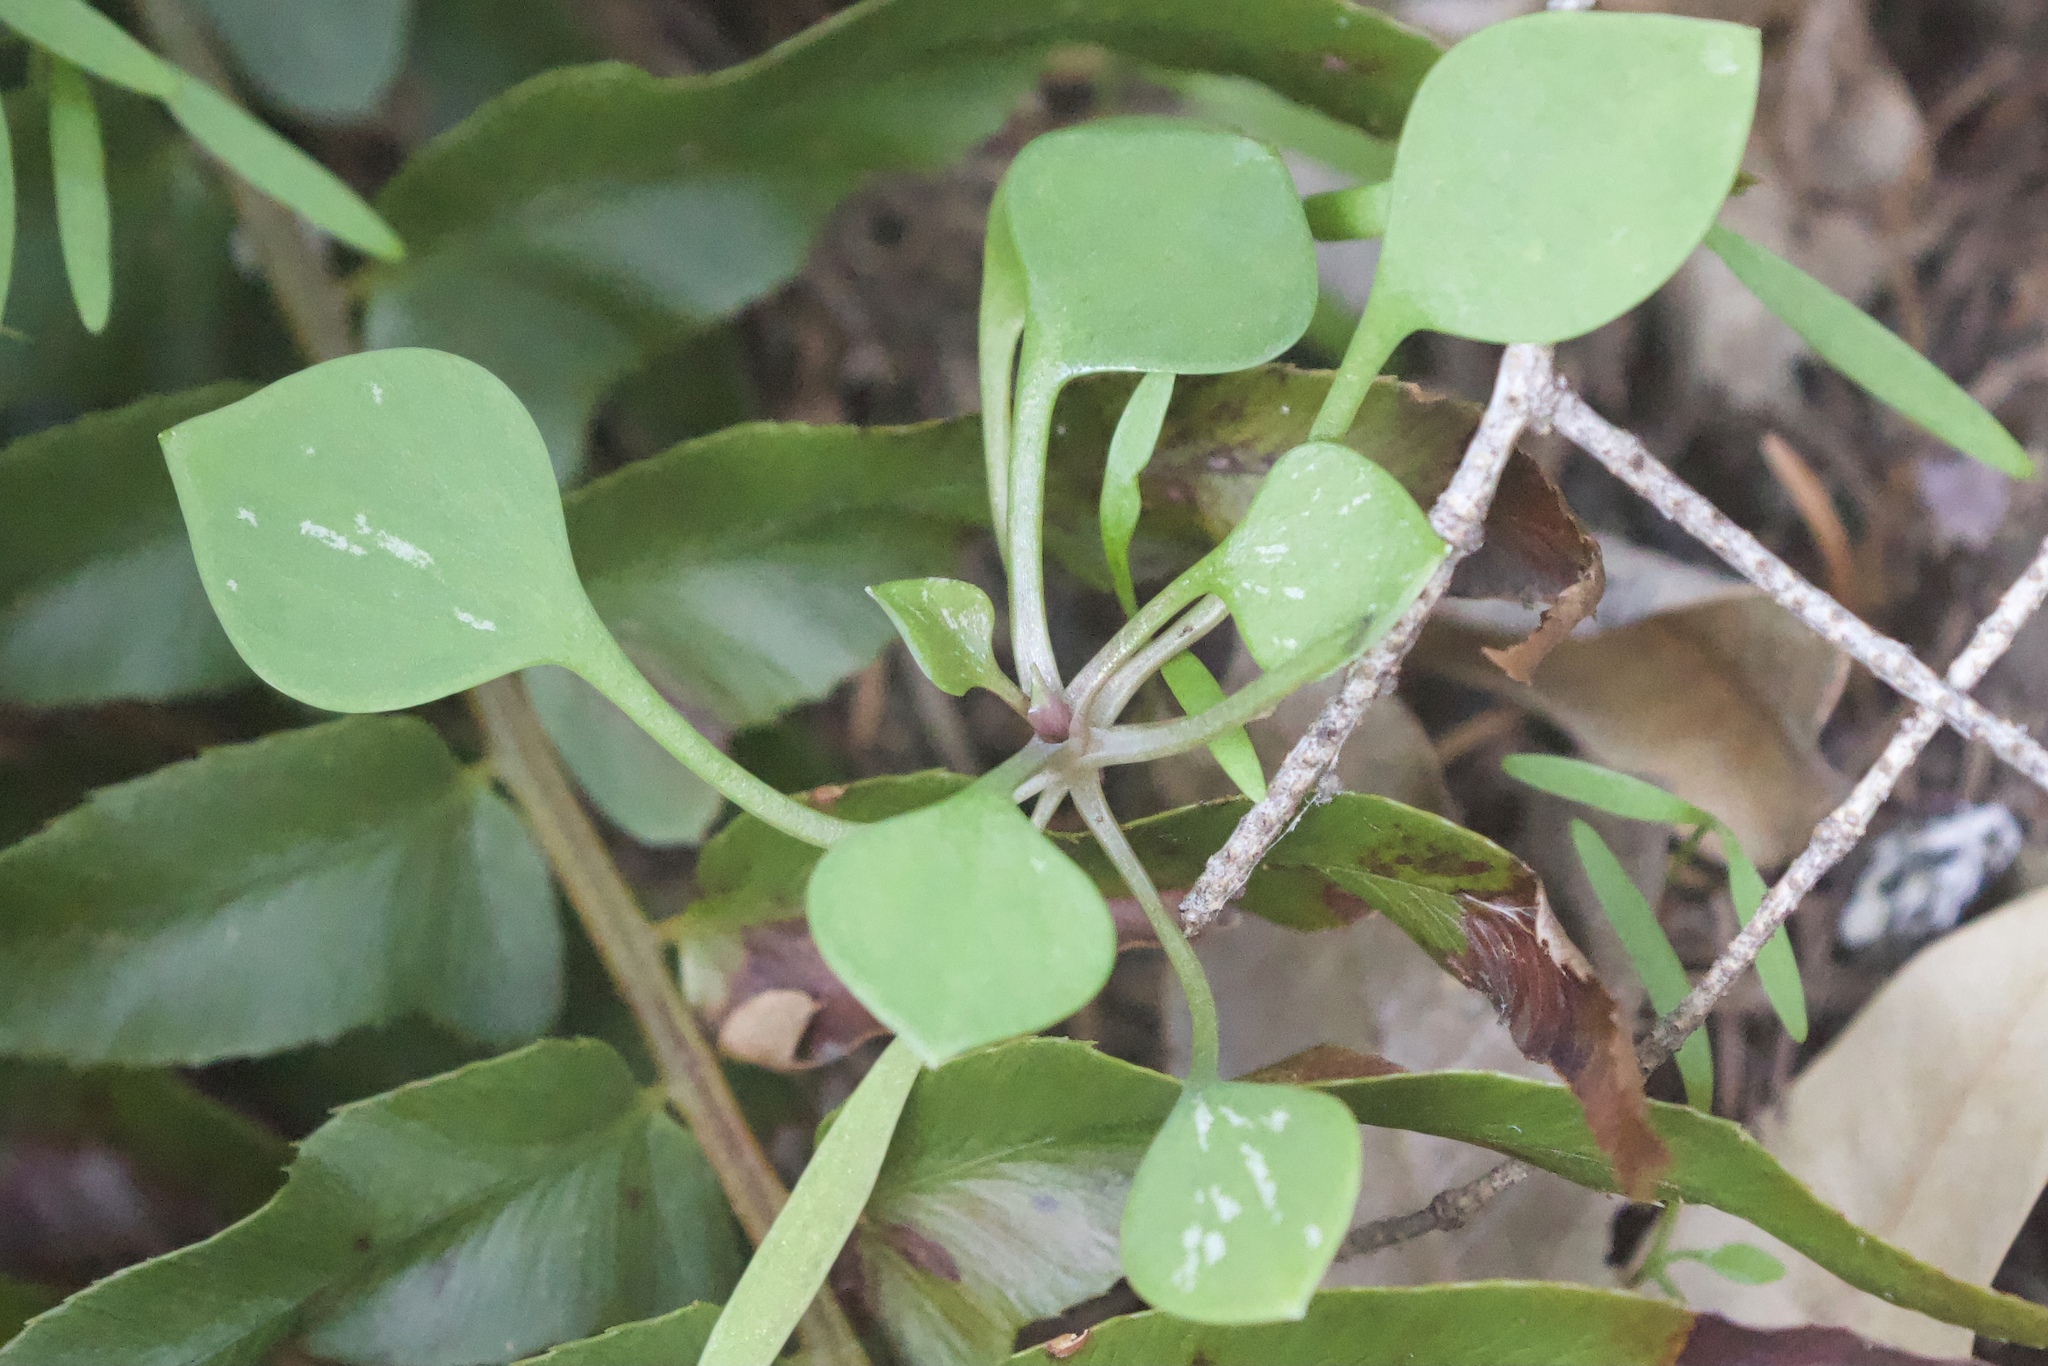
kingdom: Plantae
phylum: Tracheophyta
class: Magnoliopsida
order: Caryophyllales
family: Montiaceae
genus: Claytonia
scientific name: Claytonia perfoliata
